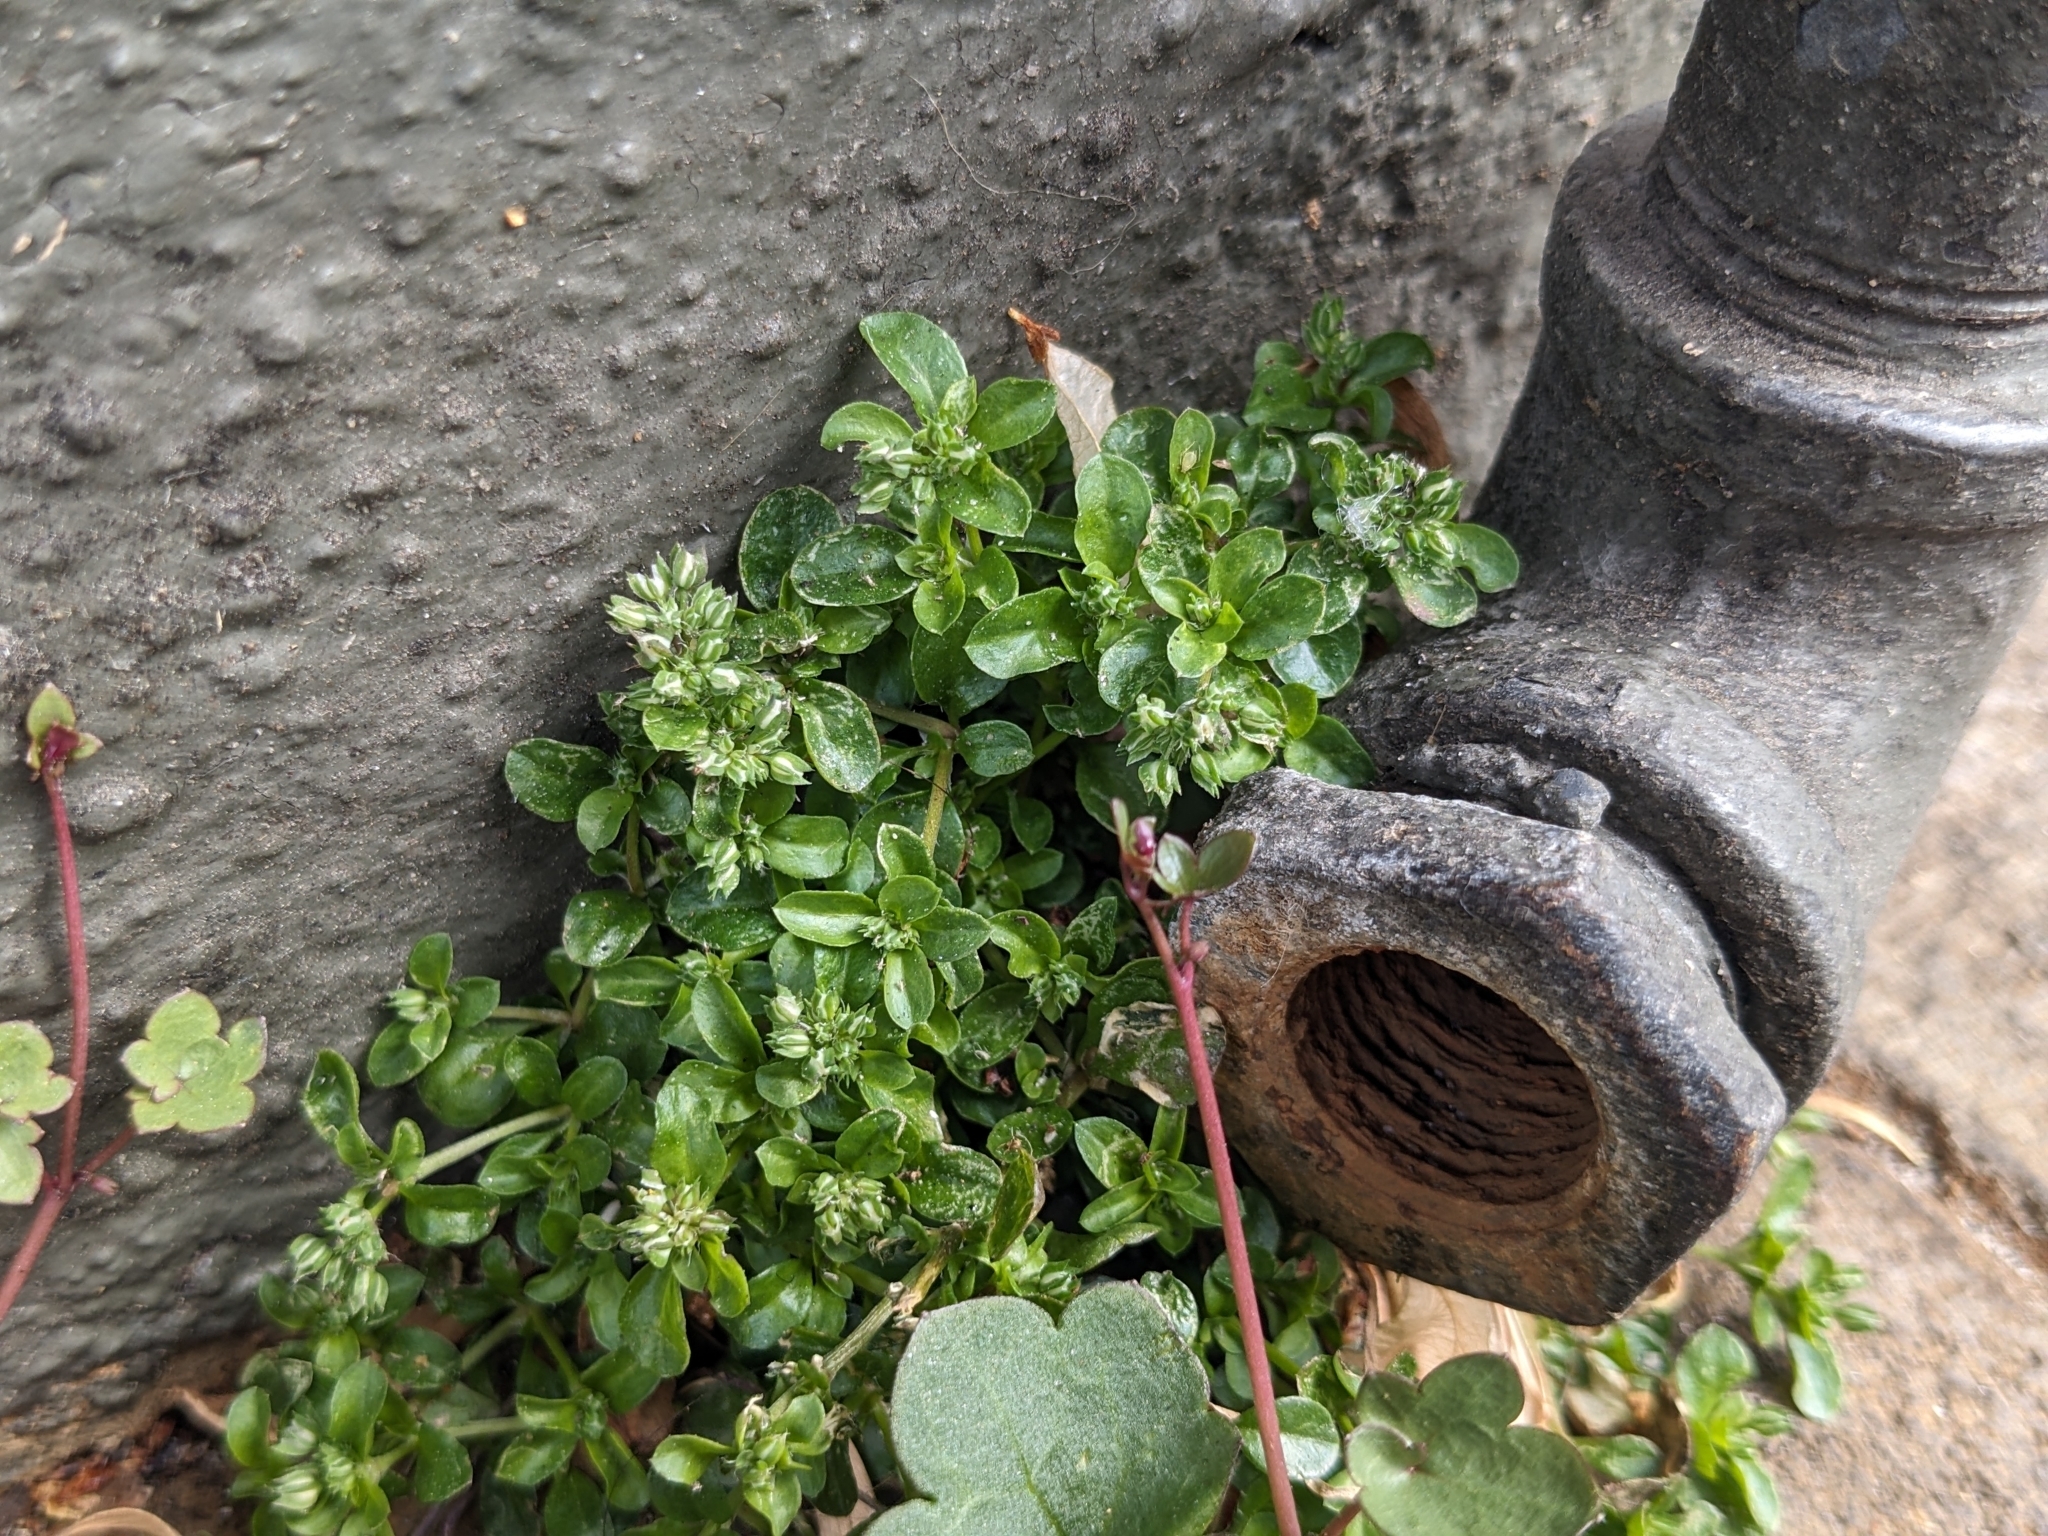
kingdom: Plantae
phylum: Tracheophyta
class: Magnoliopsida
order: Caryophyllales
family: Caryophyllaceae
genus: Polycarpon
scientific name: Polycarpon tetraphyllum
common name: Four-leaved all-seed
